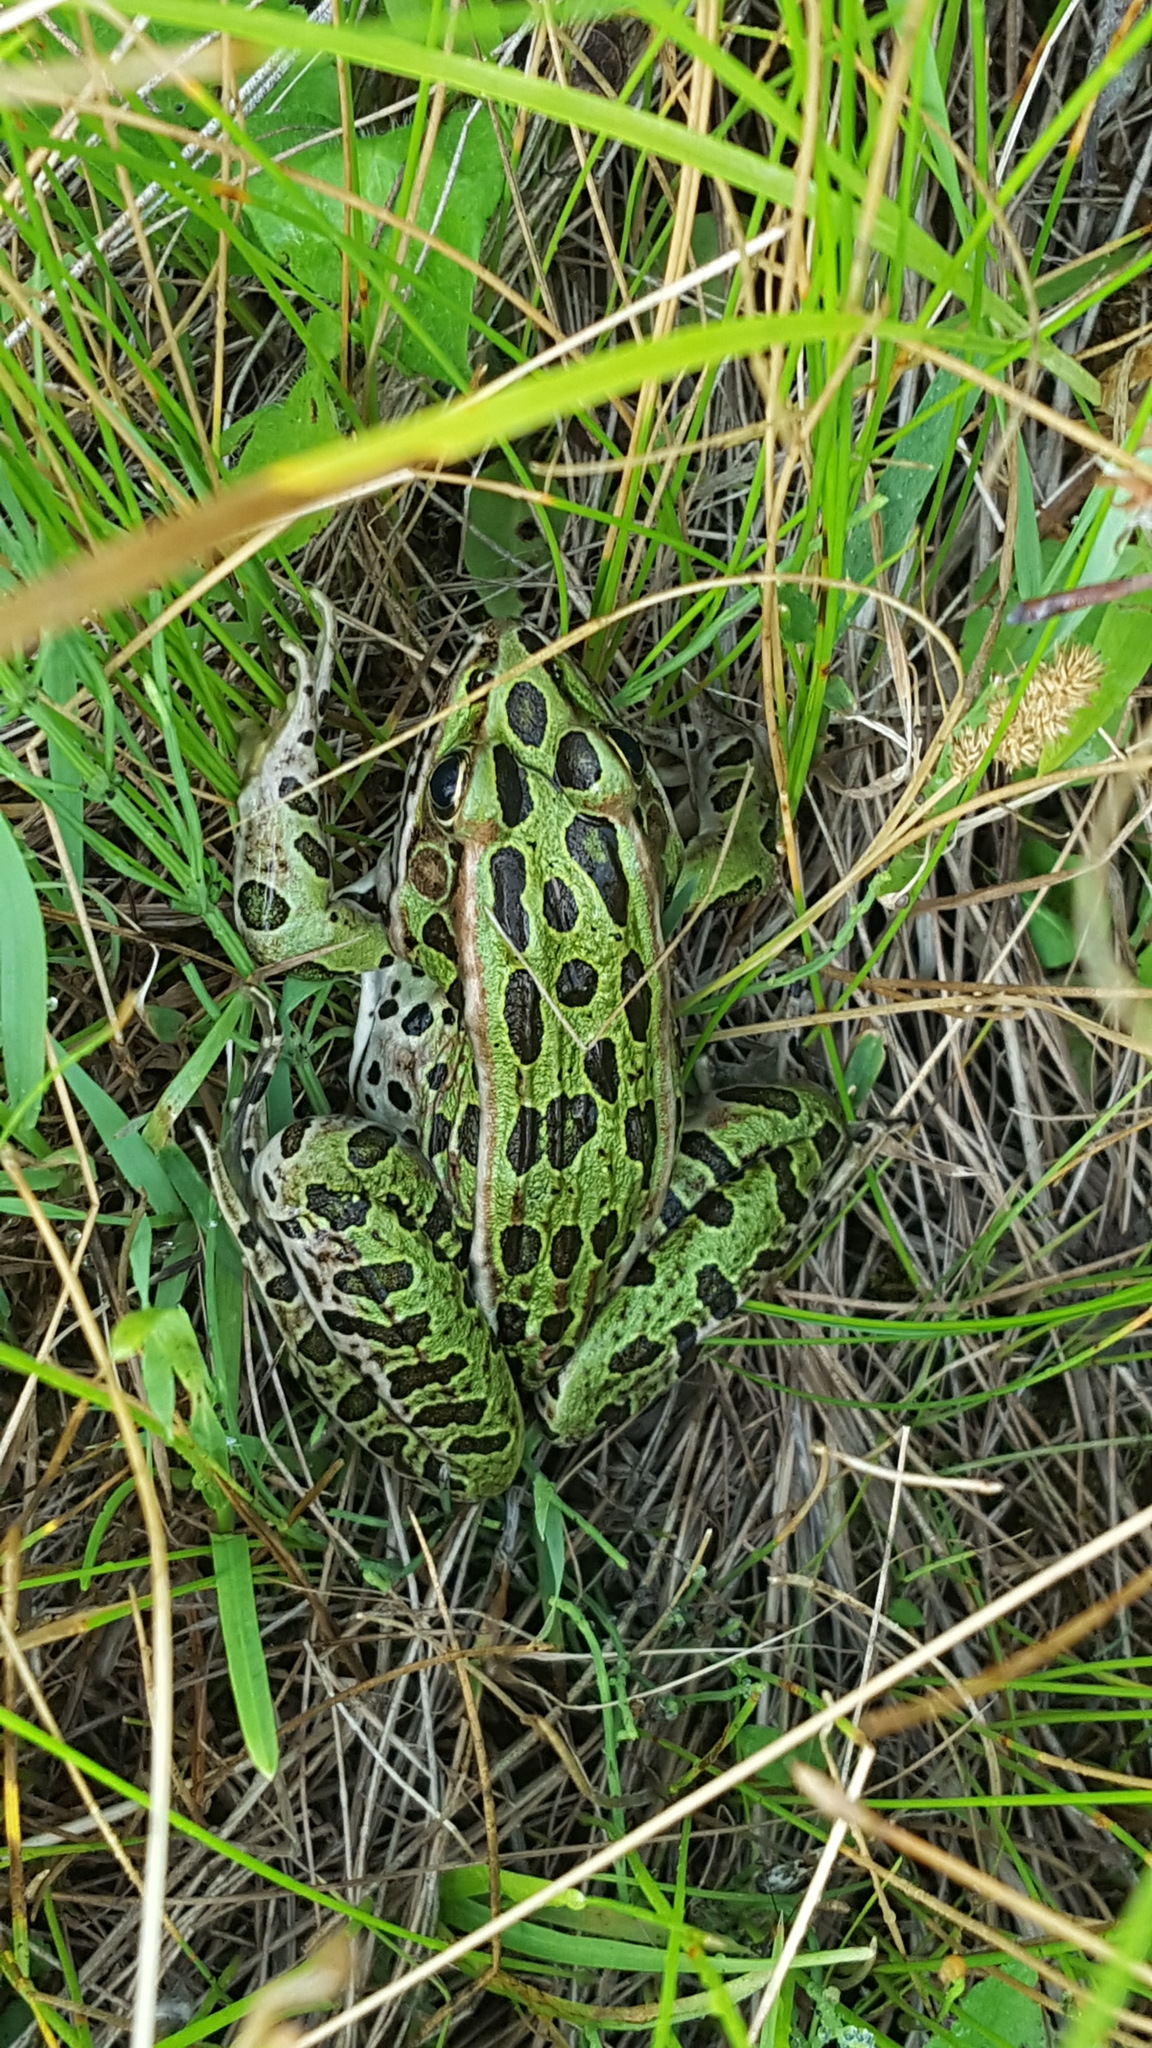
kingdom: Animalia
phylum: Chordata
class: Amphibia
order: Anura
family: Ranidae
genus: Lithobates
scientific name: Lithobates pipiens
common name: Northern leopard frog
